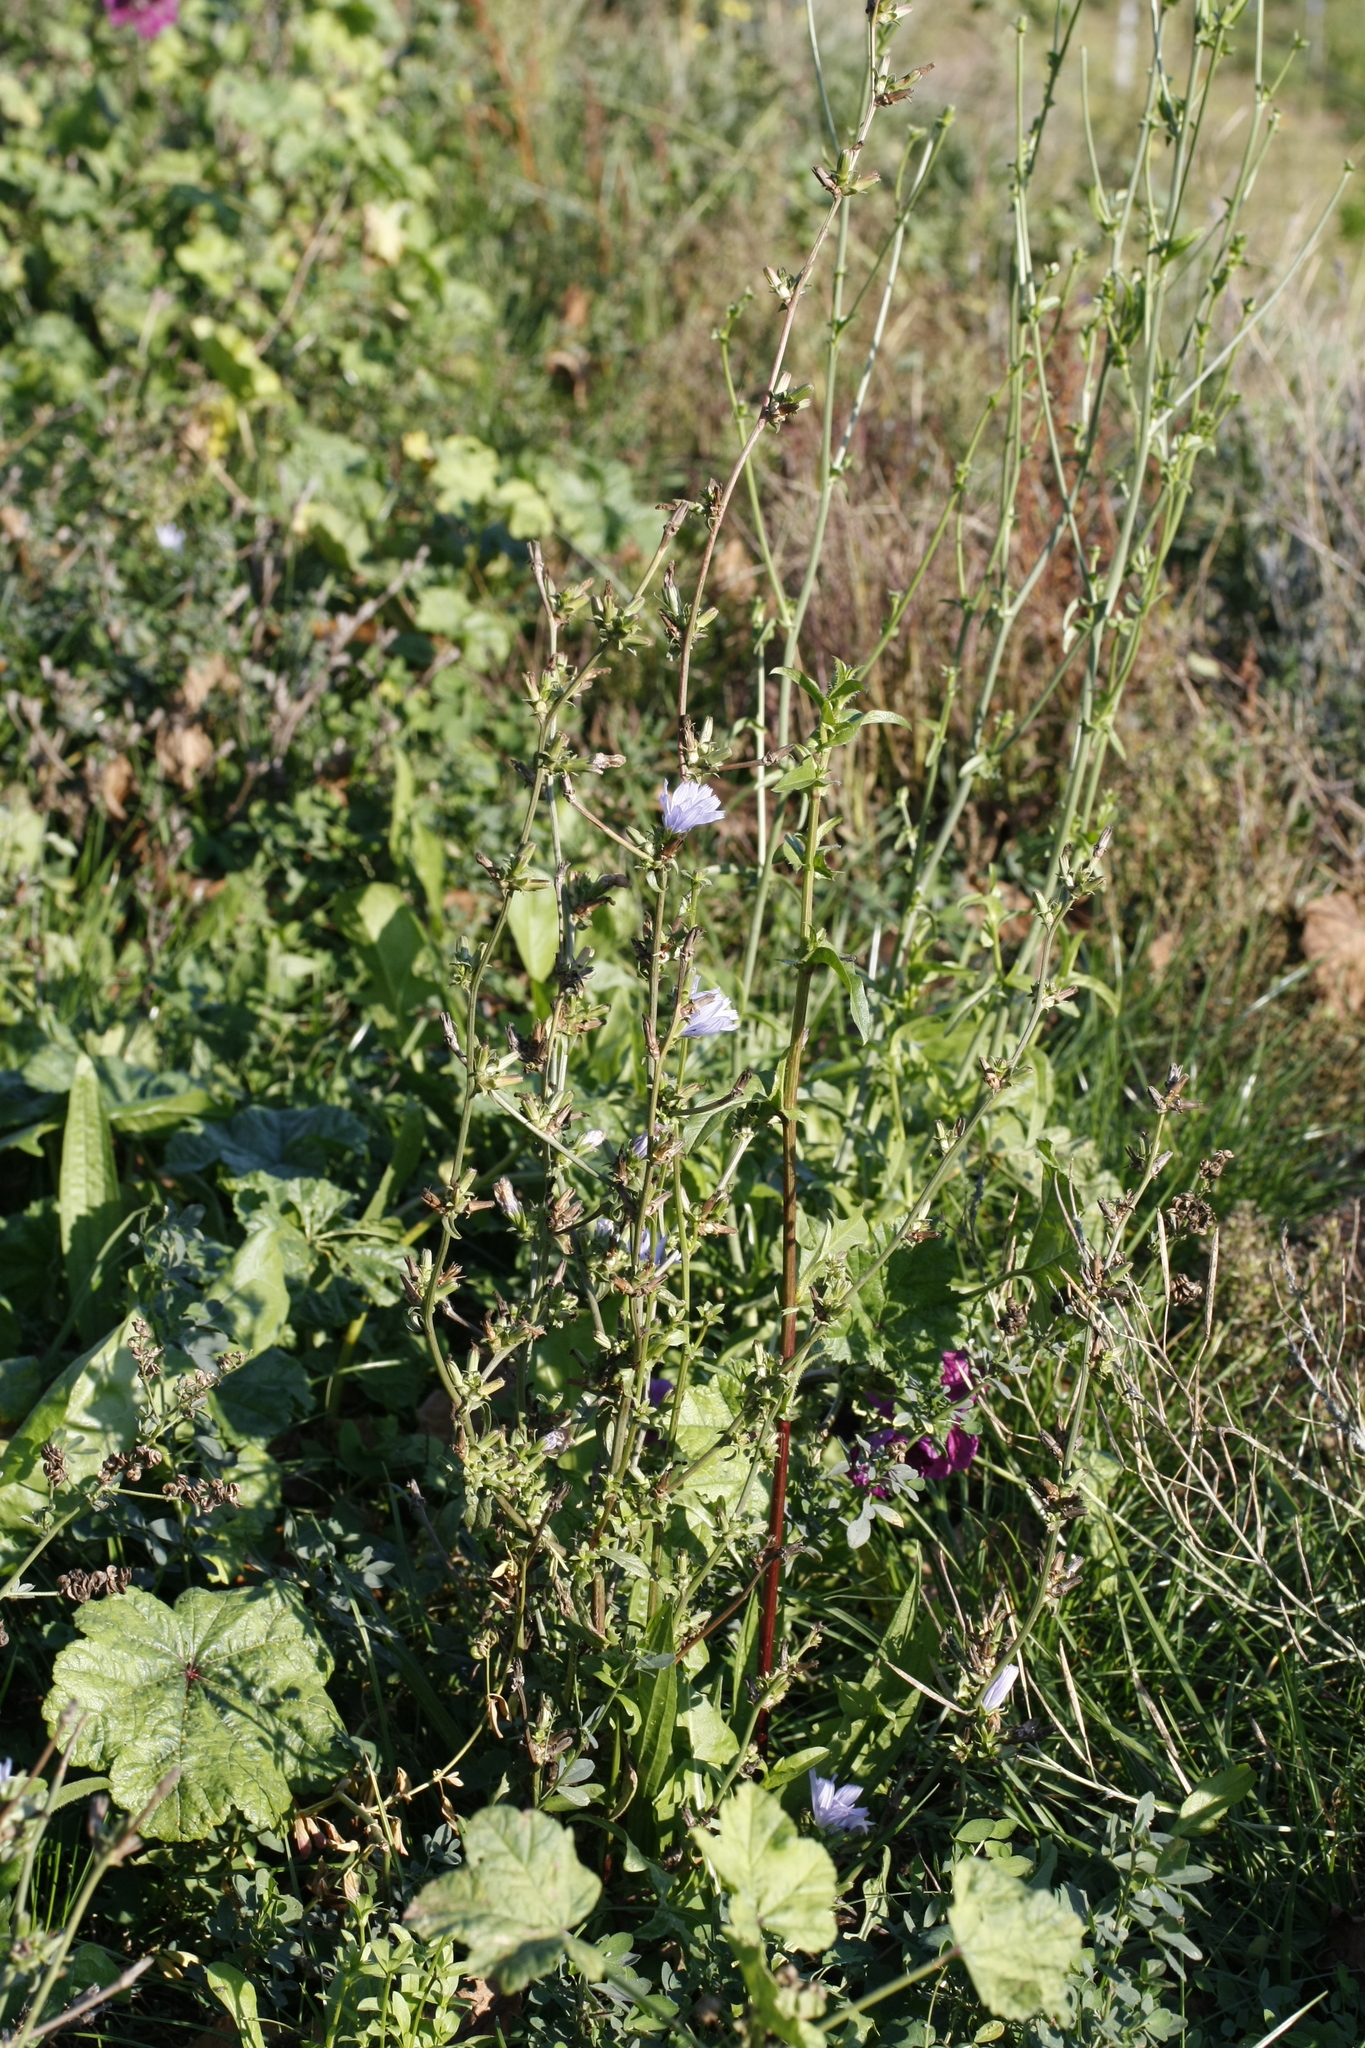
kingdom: Plantae
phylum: Tracheophyta
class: Magnoliopsida
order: Asterales
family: Asteraceae
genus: Cichorium
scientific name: Cichorium intybus
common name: Chicory
